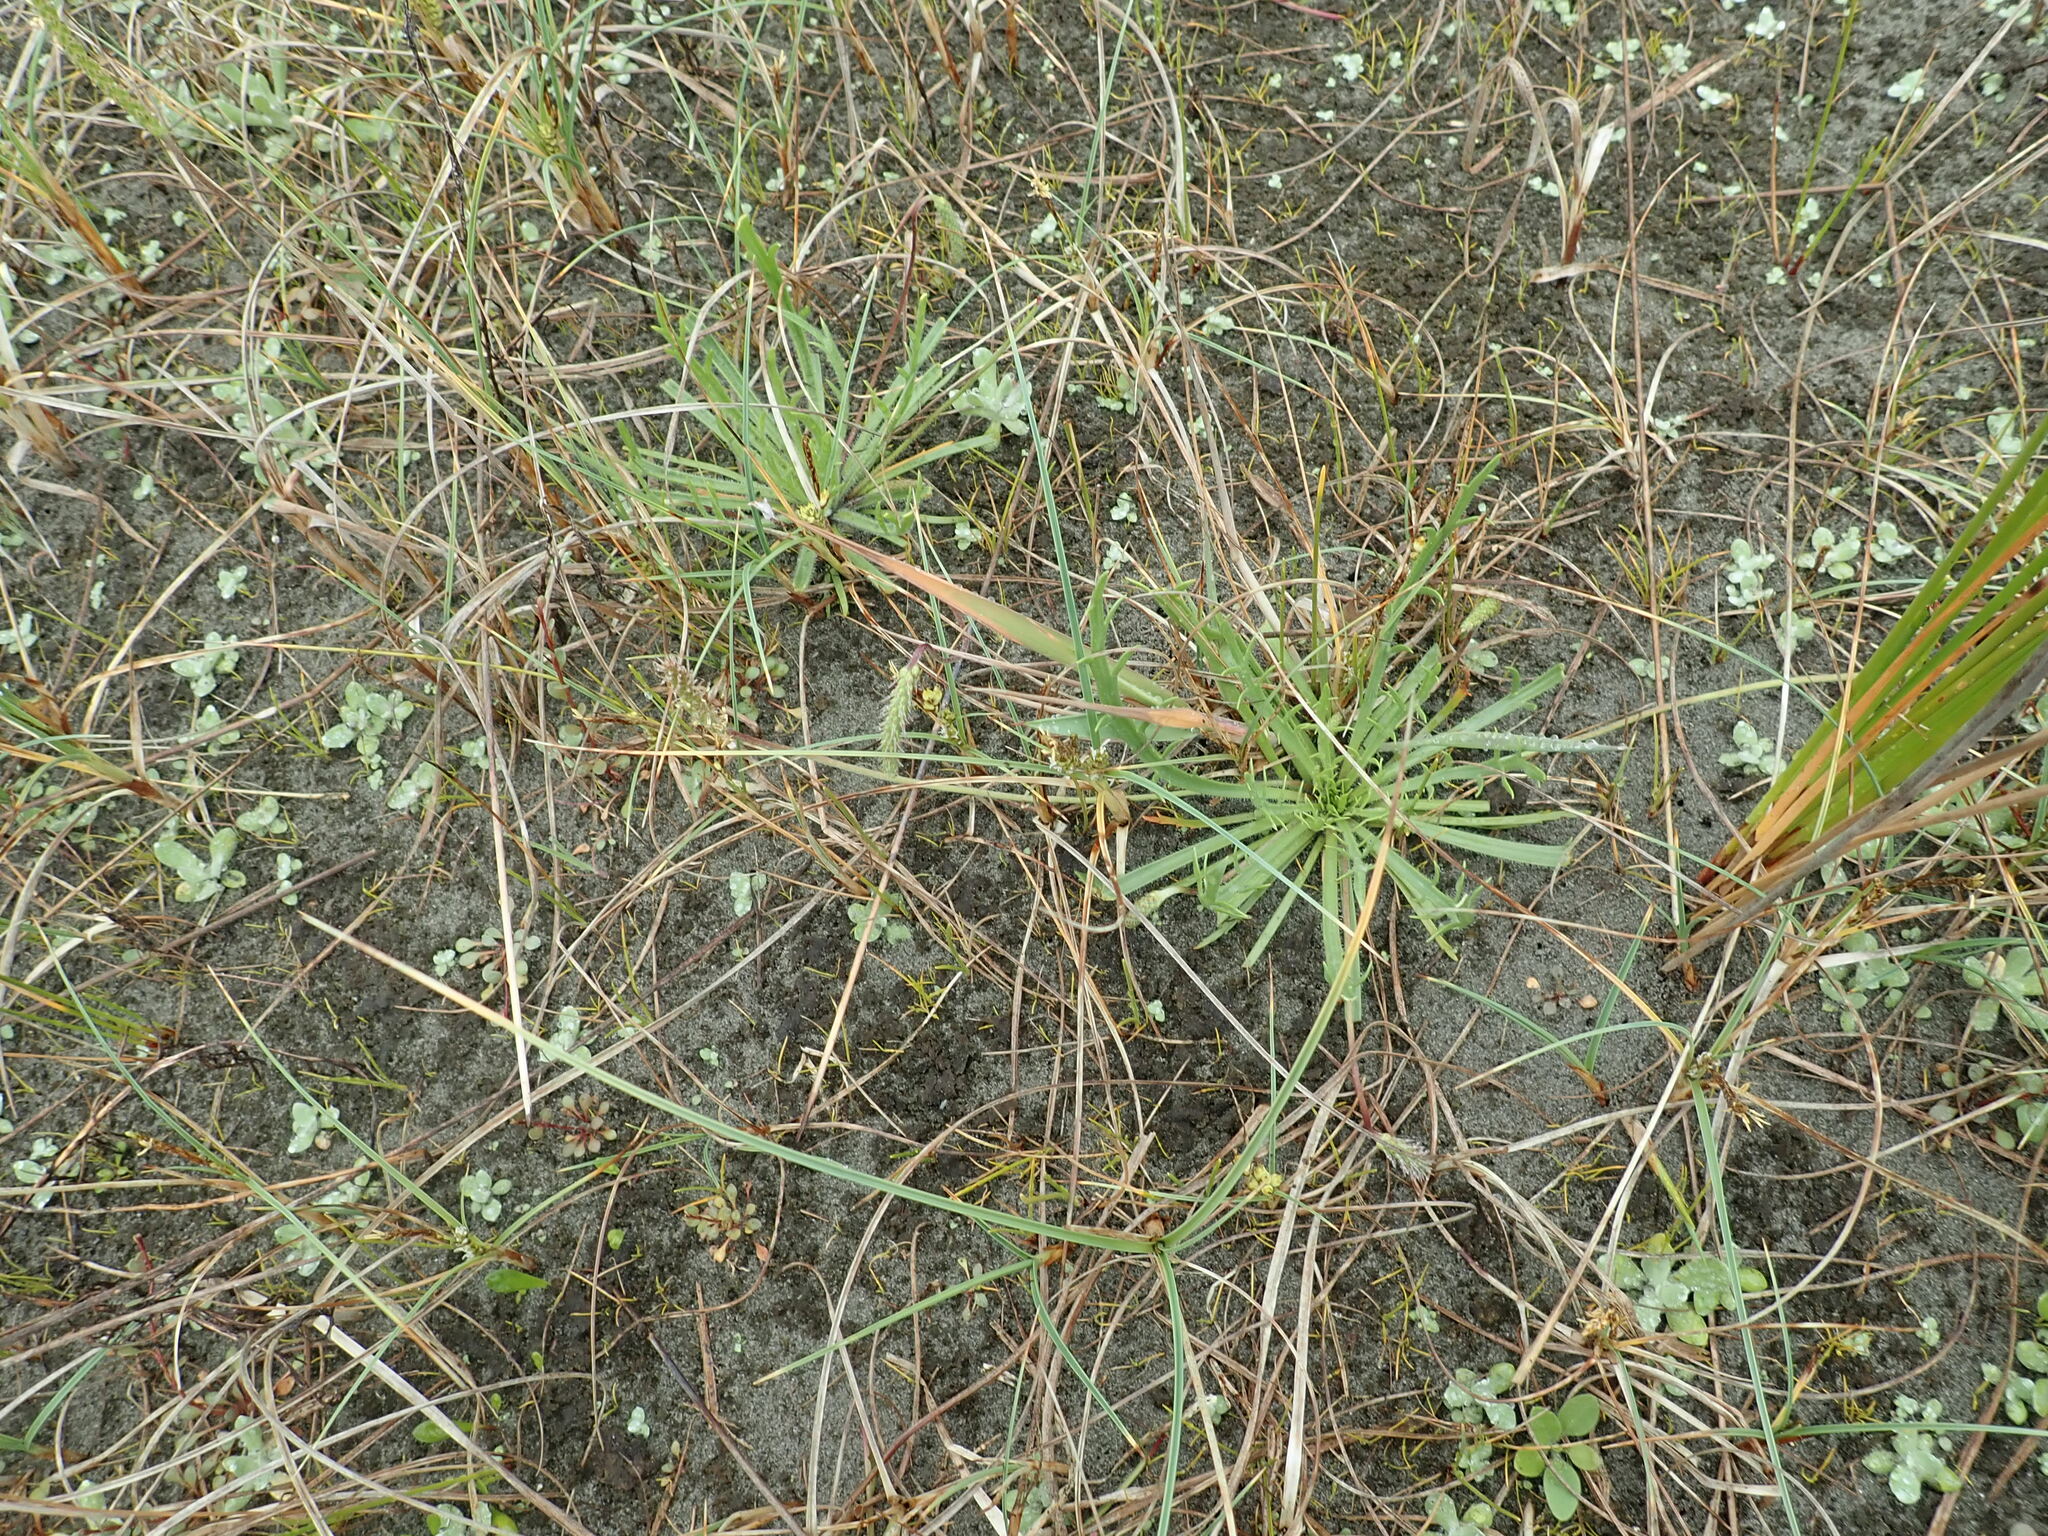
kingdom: Plantae
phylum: Tracheophyta
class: Magnoliopsida
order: Lamiales
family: Plantaginaceae
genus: Plantago
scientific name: Plantago coronopus
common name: Buck's-horn plantain
